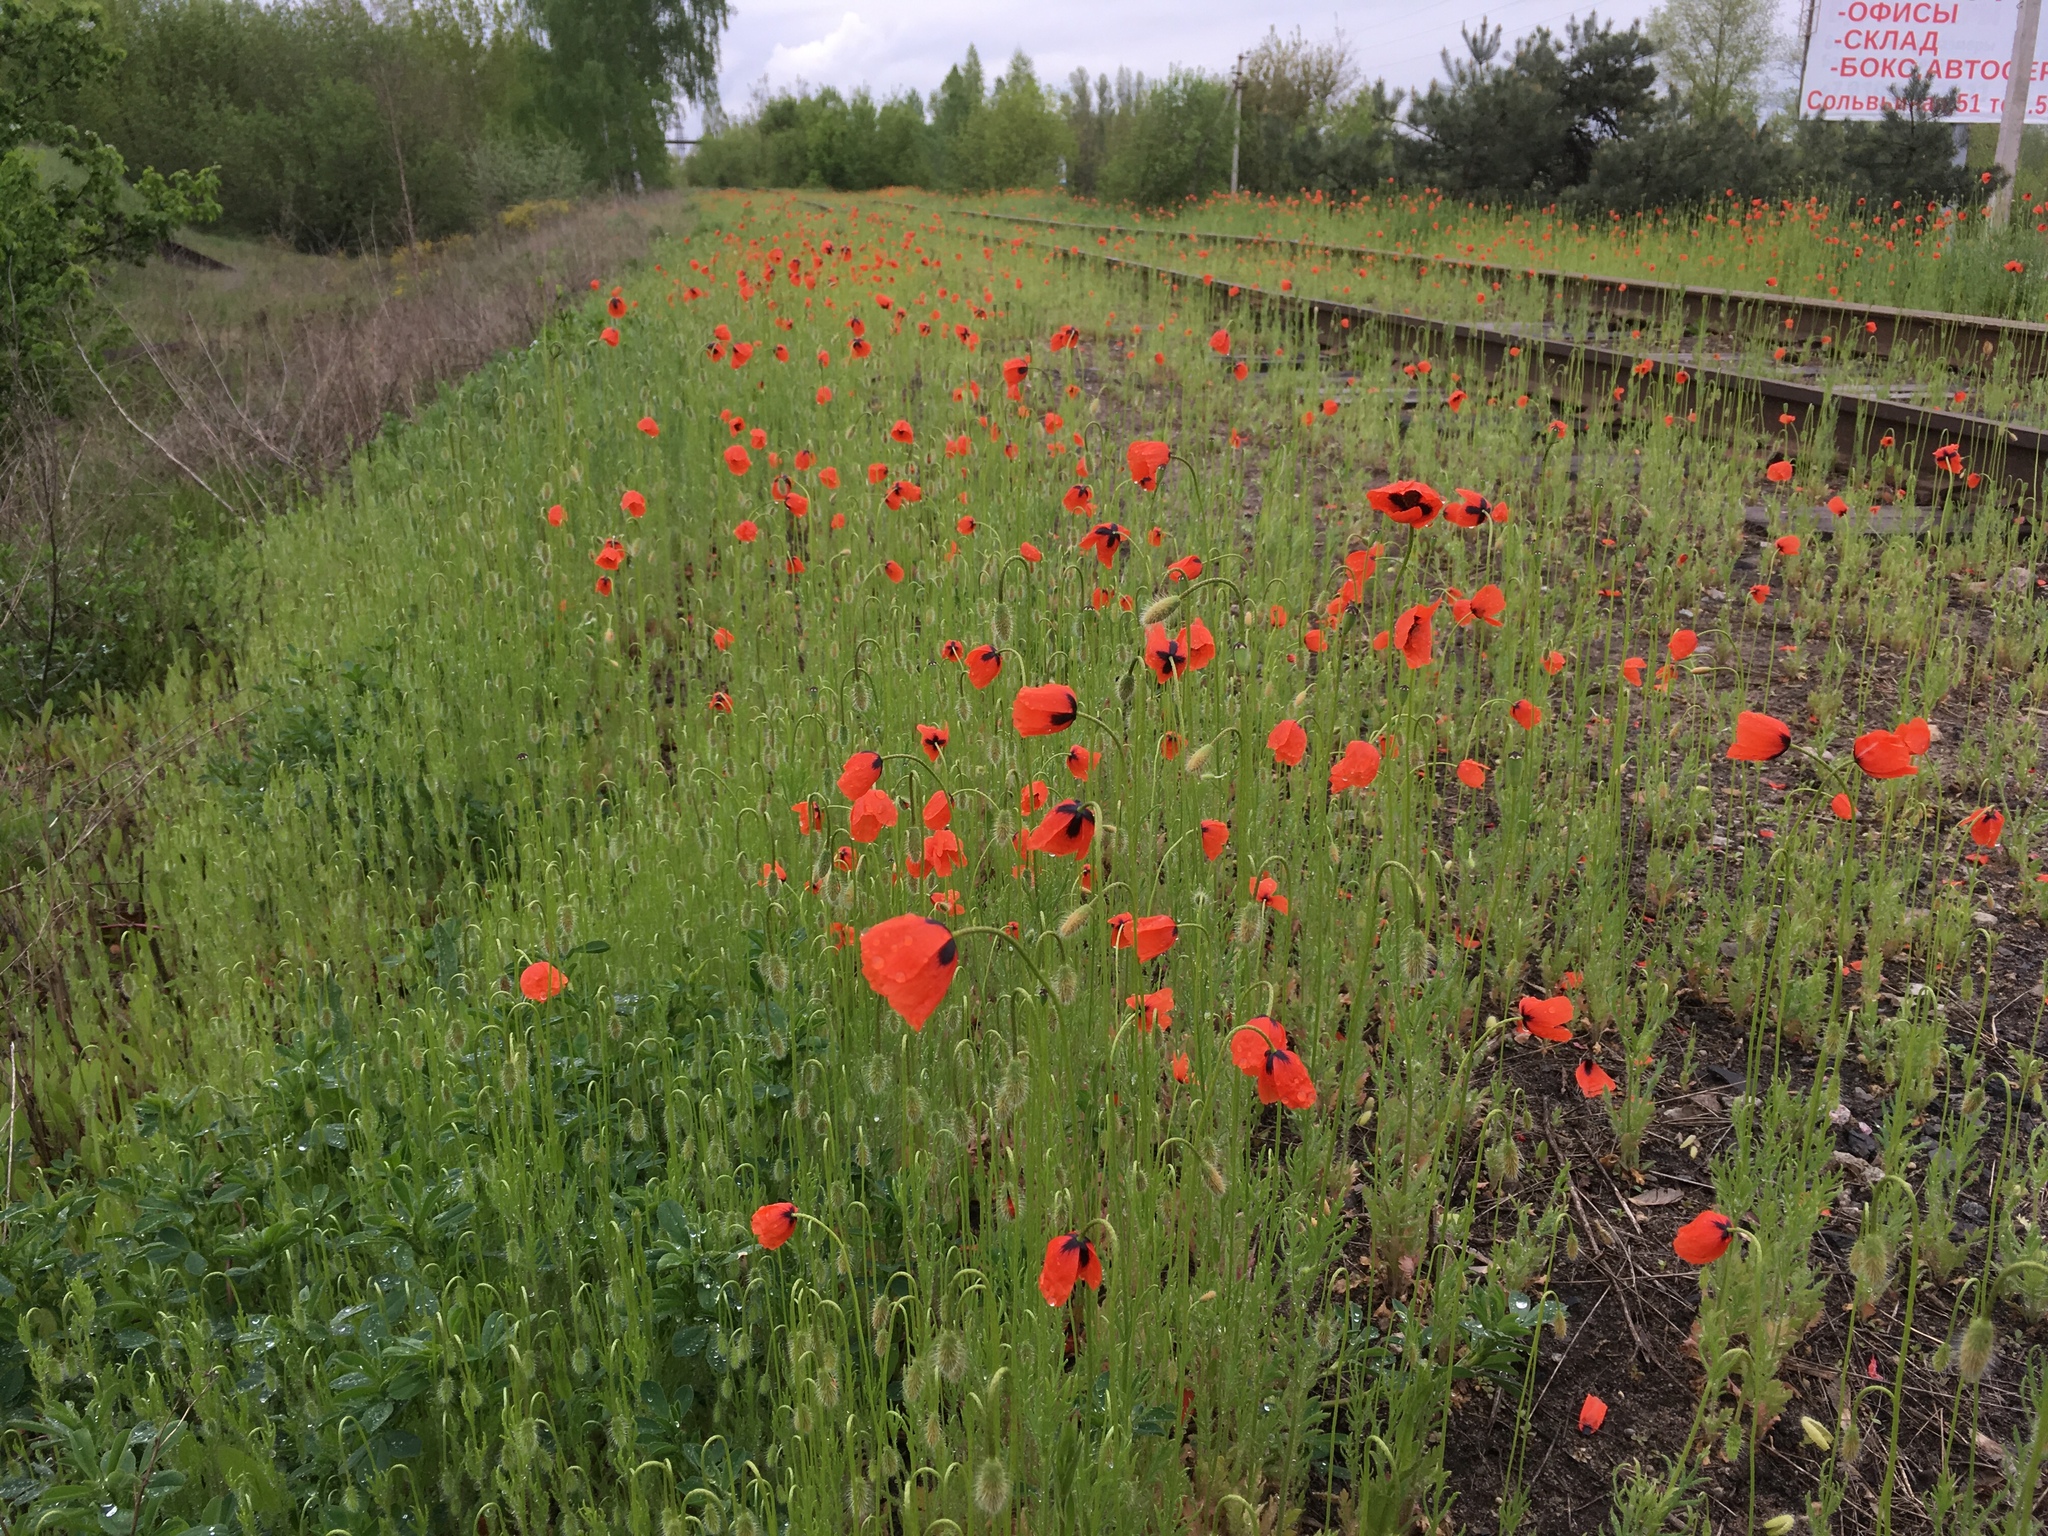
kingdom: Plantae
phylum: Tracheophyta
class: Magnoliopsida
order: Ranunculales
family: Papaveraceae
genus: Papaver
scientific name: Papaver dubium
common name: Long-headed poppy
